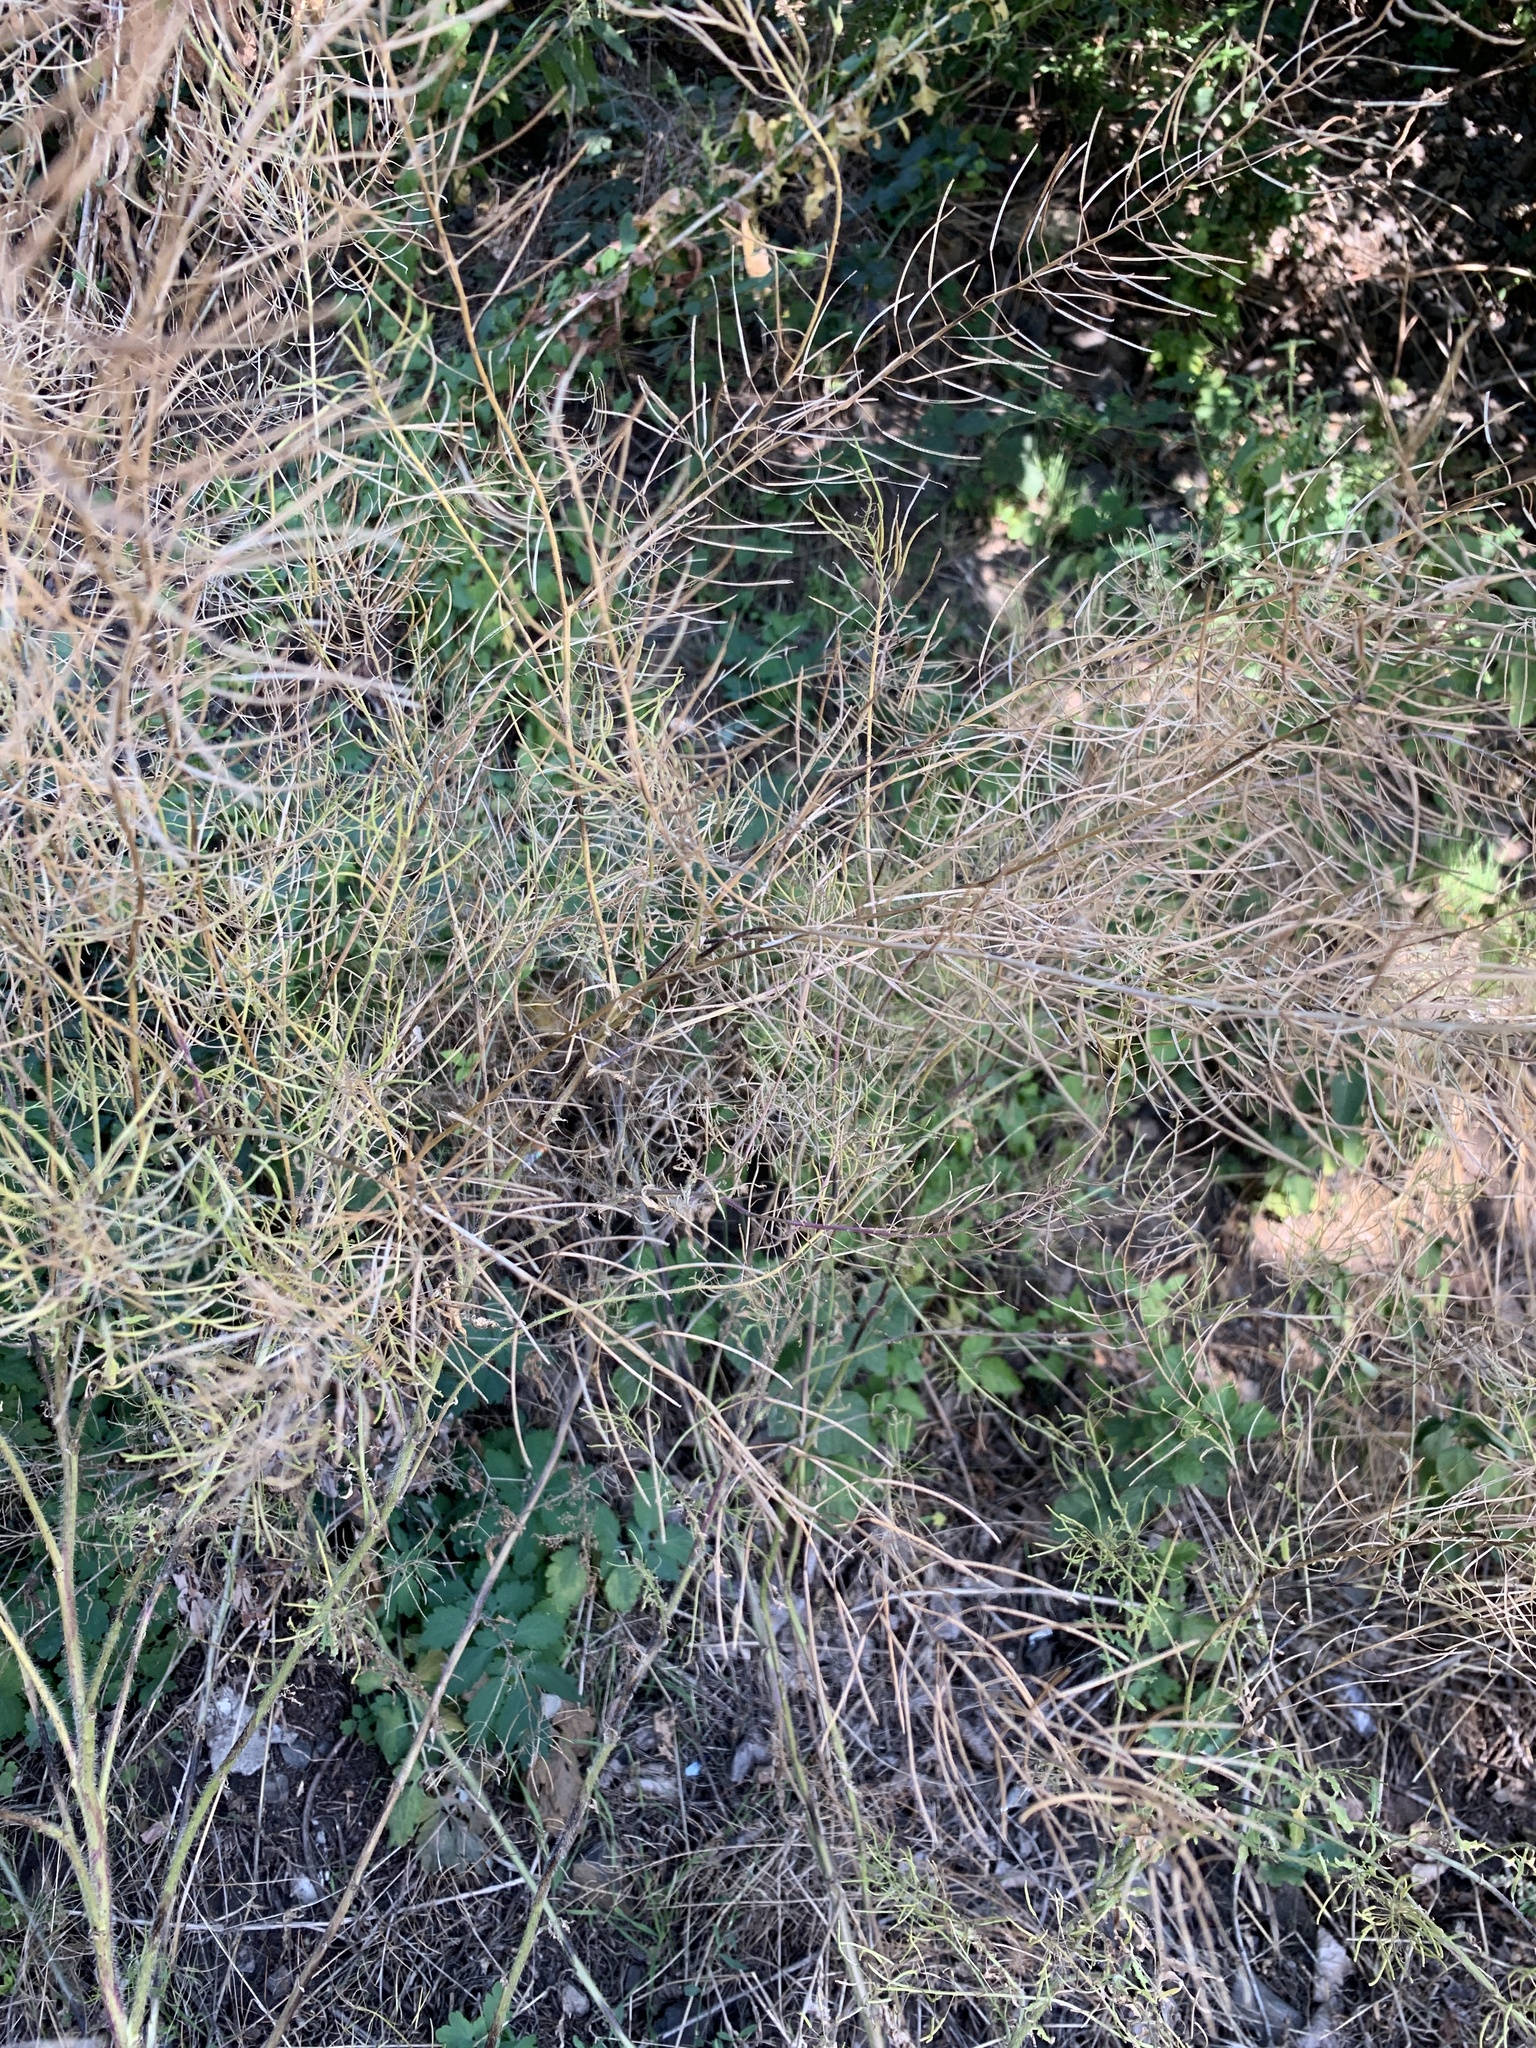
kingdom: Plantae
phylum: Tracheophyta
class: Magnoliopsida
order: Brassicales
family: Brassicaceae
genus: Sisymbrium
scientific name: Sisymbrium loeselii
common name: False london-rocket
